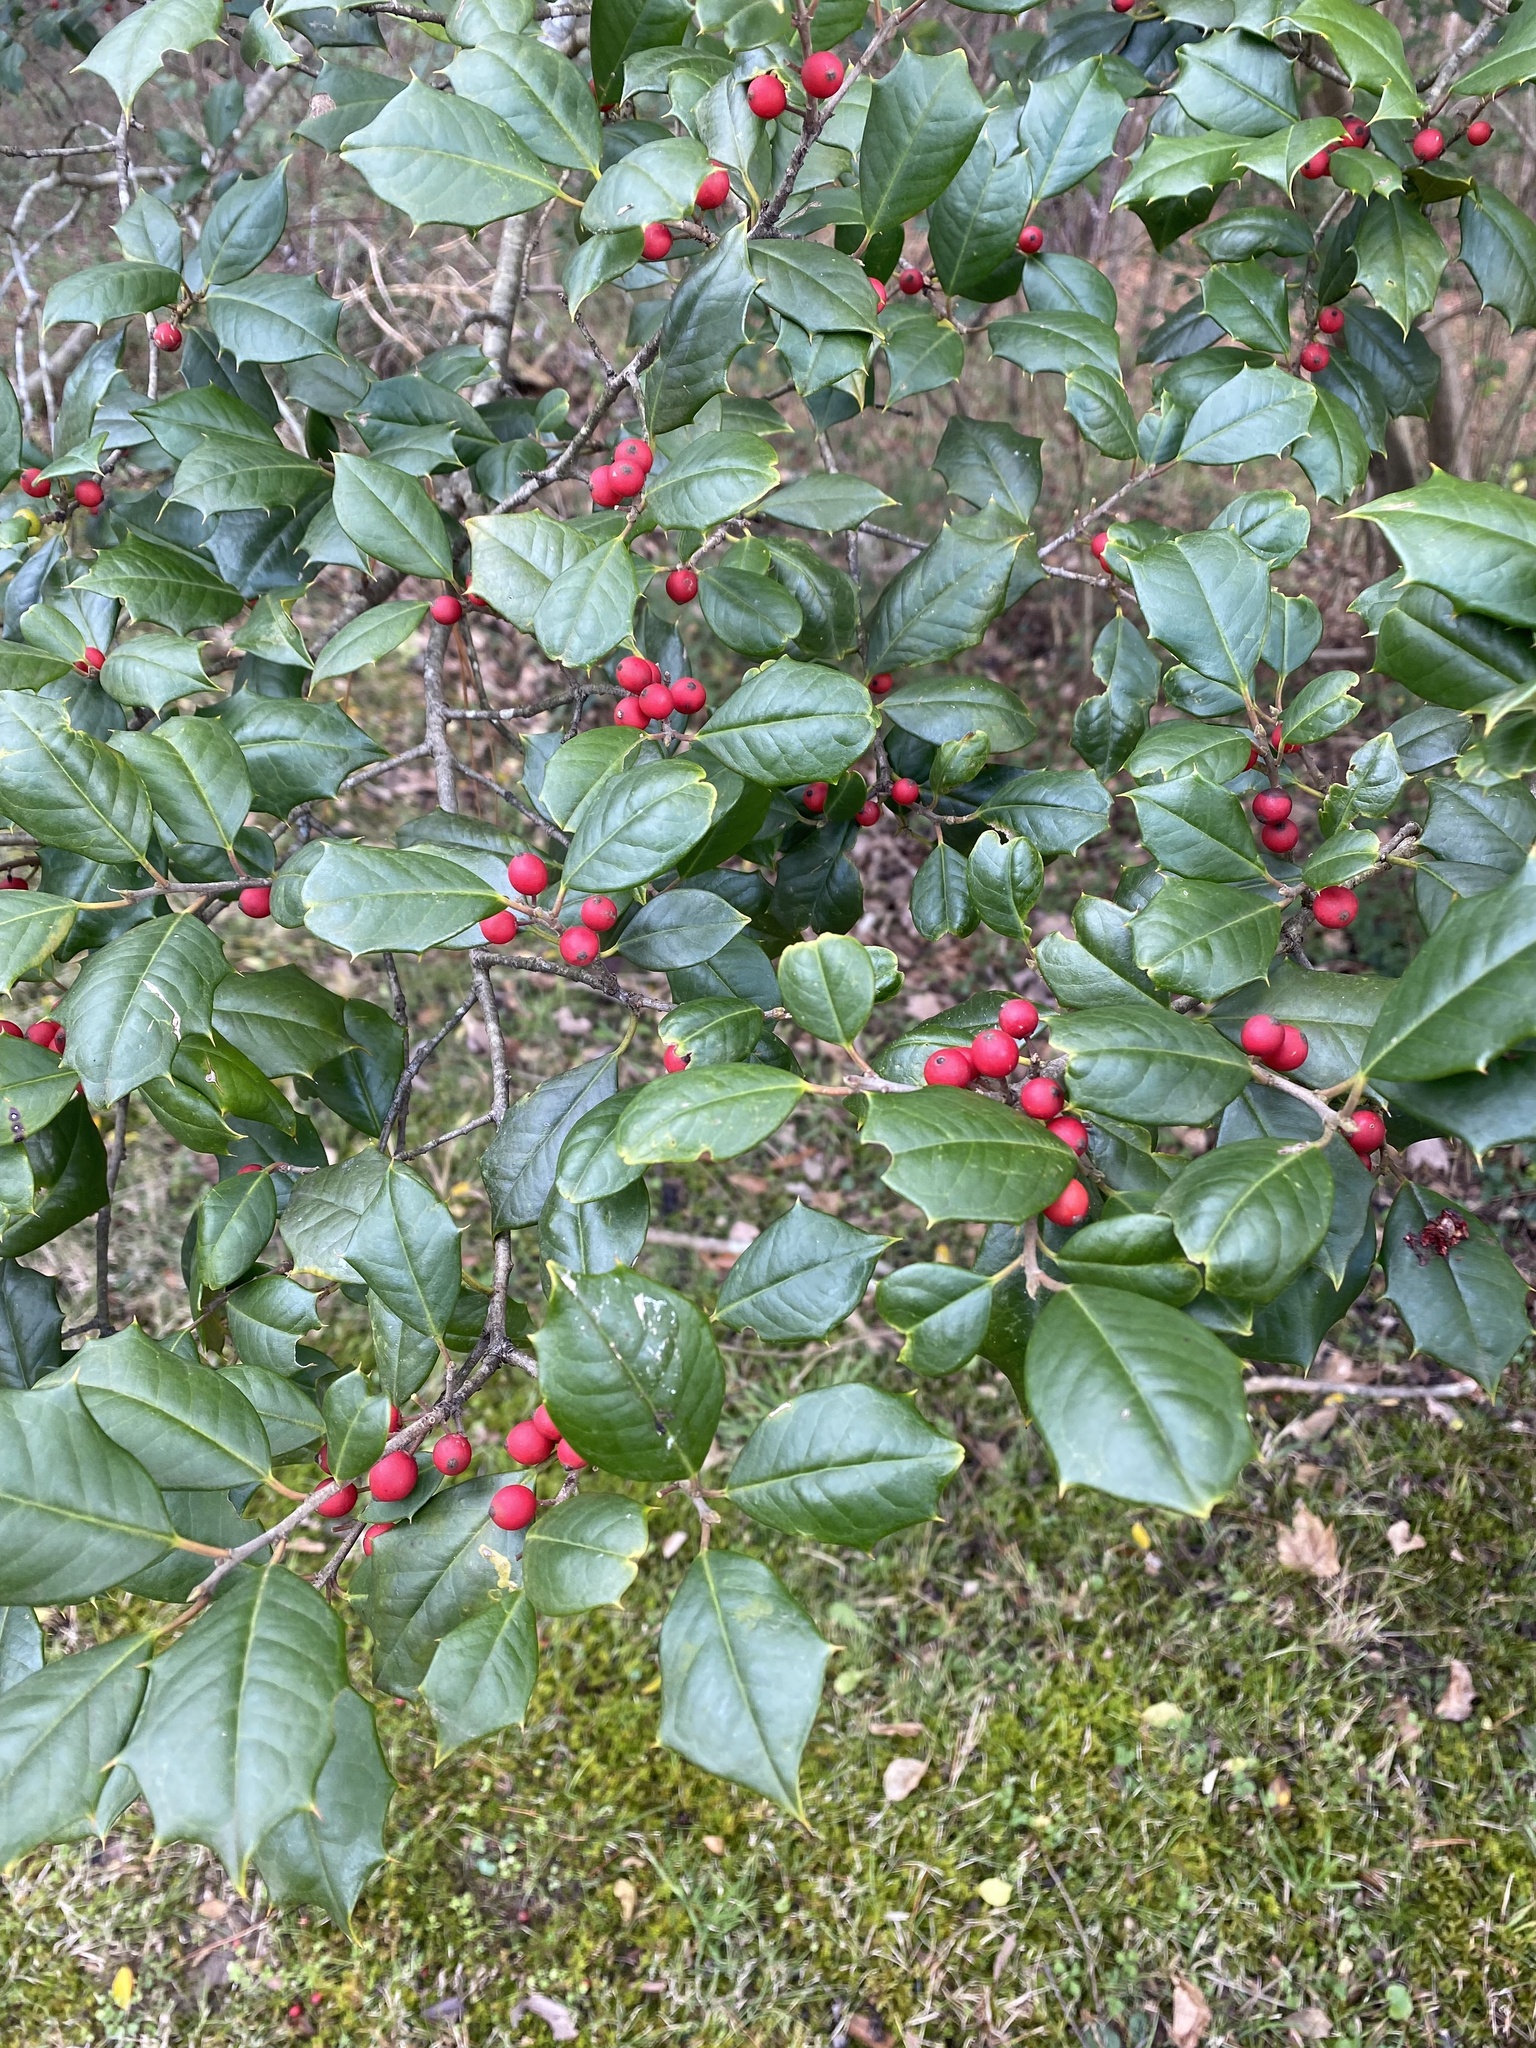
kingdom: Plantae
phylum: Tracheophyta
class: Magnoliopsida
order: Aquifoliales
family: Aquifoliaceae
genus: Ilex
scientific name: Ilex opaca
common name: American holly
